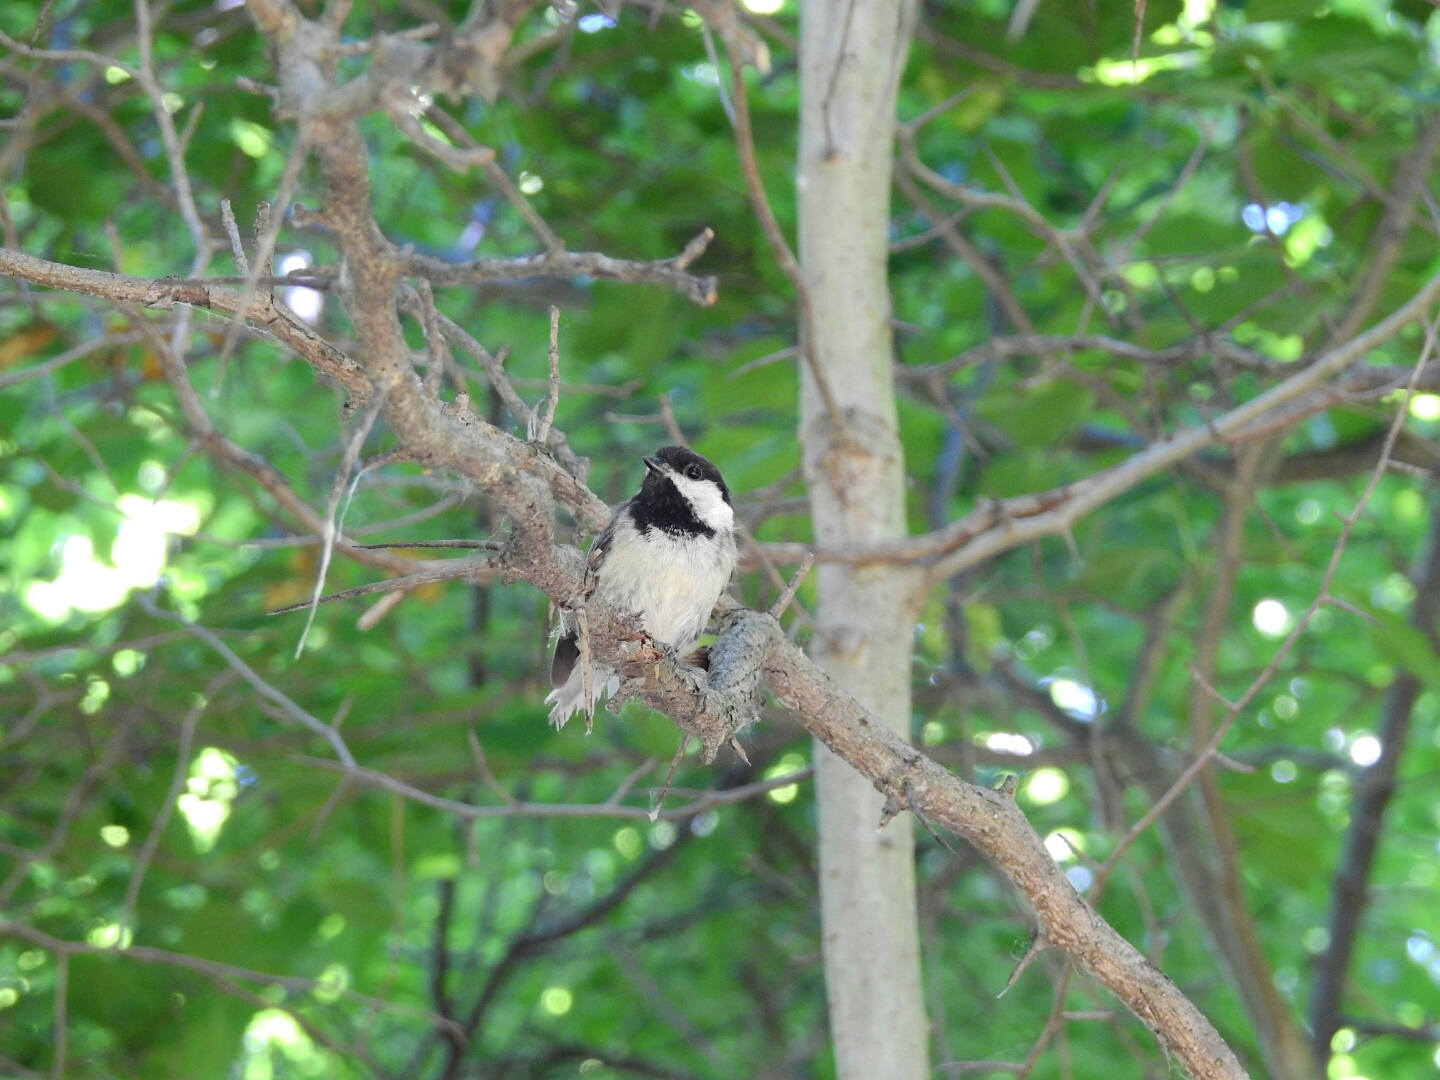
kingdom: Animalia
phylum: Chordata
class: Aves
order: Passeriformes
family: Paridae
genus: Poecile
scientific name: Poecile atricapillus
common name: Black-capped chickadee
